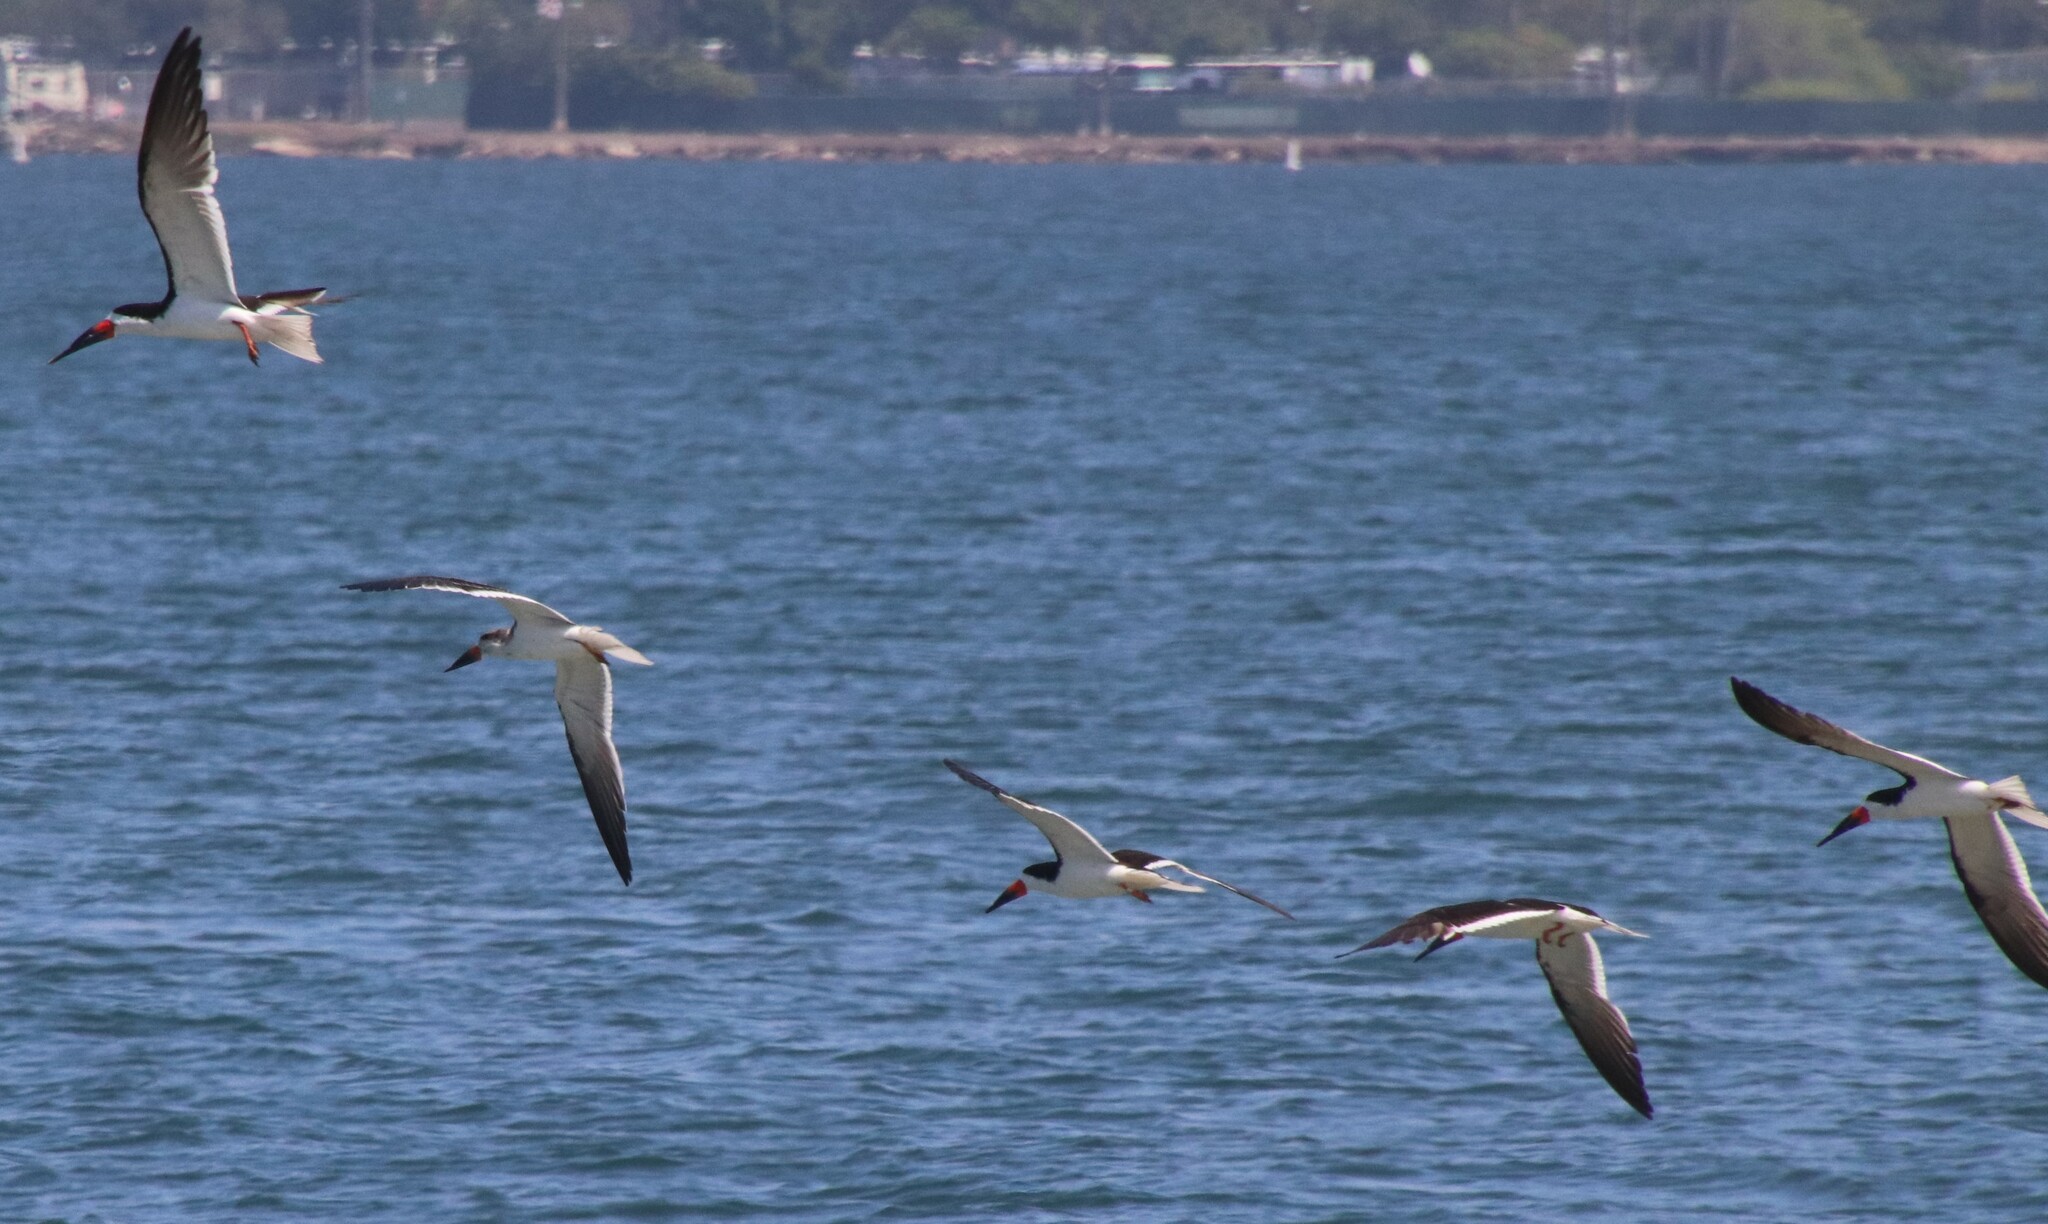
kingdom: Animalia
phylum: Chordata
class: Aves
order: Charadriiformes
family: Laridae
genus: Rynchops
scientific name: Rynchops niger
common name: Black skimmer
